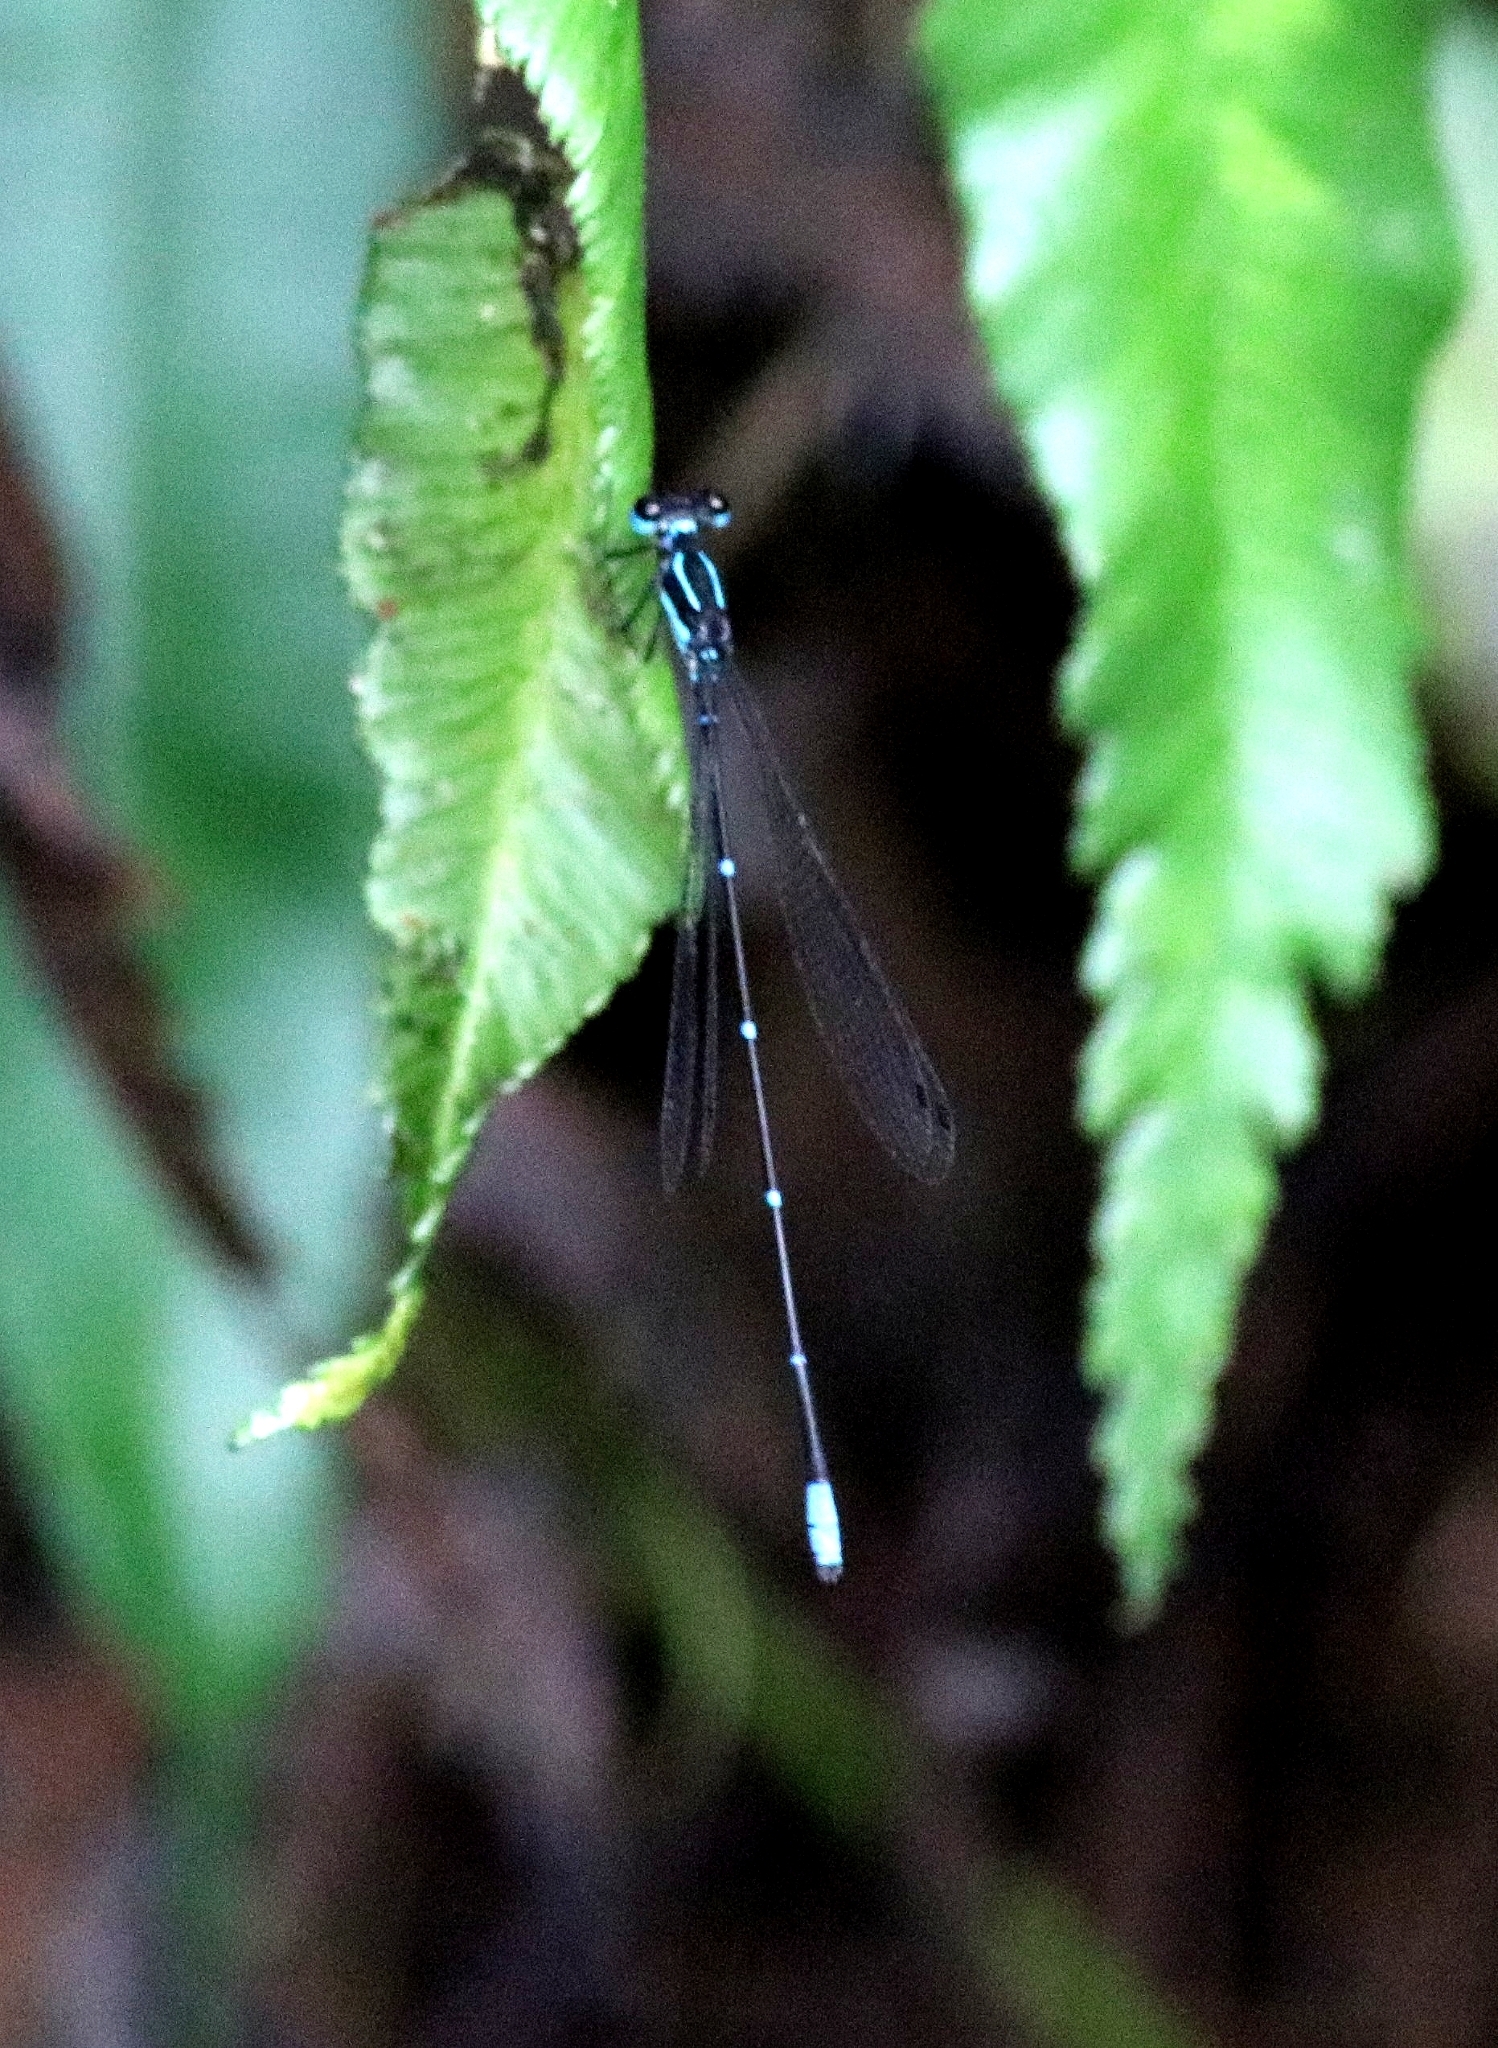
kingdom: Animalia
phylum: Arthropoda
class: Insecta
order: Odonata
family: Platycnemididae
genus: Caconeura
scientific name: Caconeura ramburi
